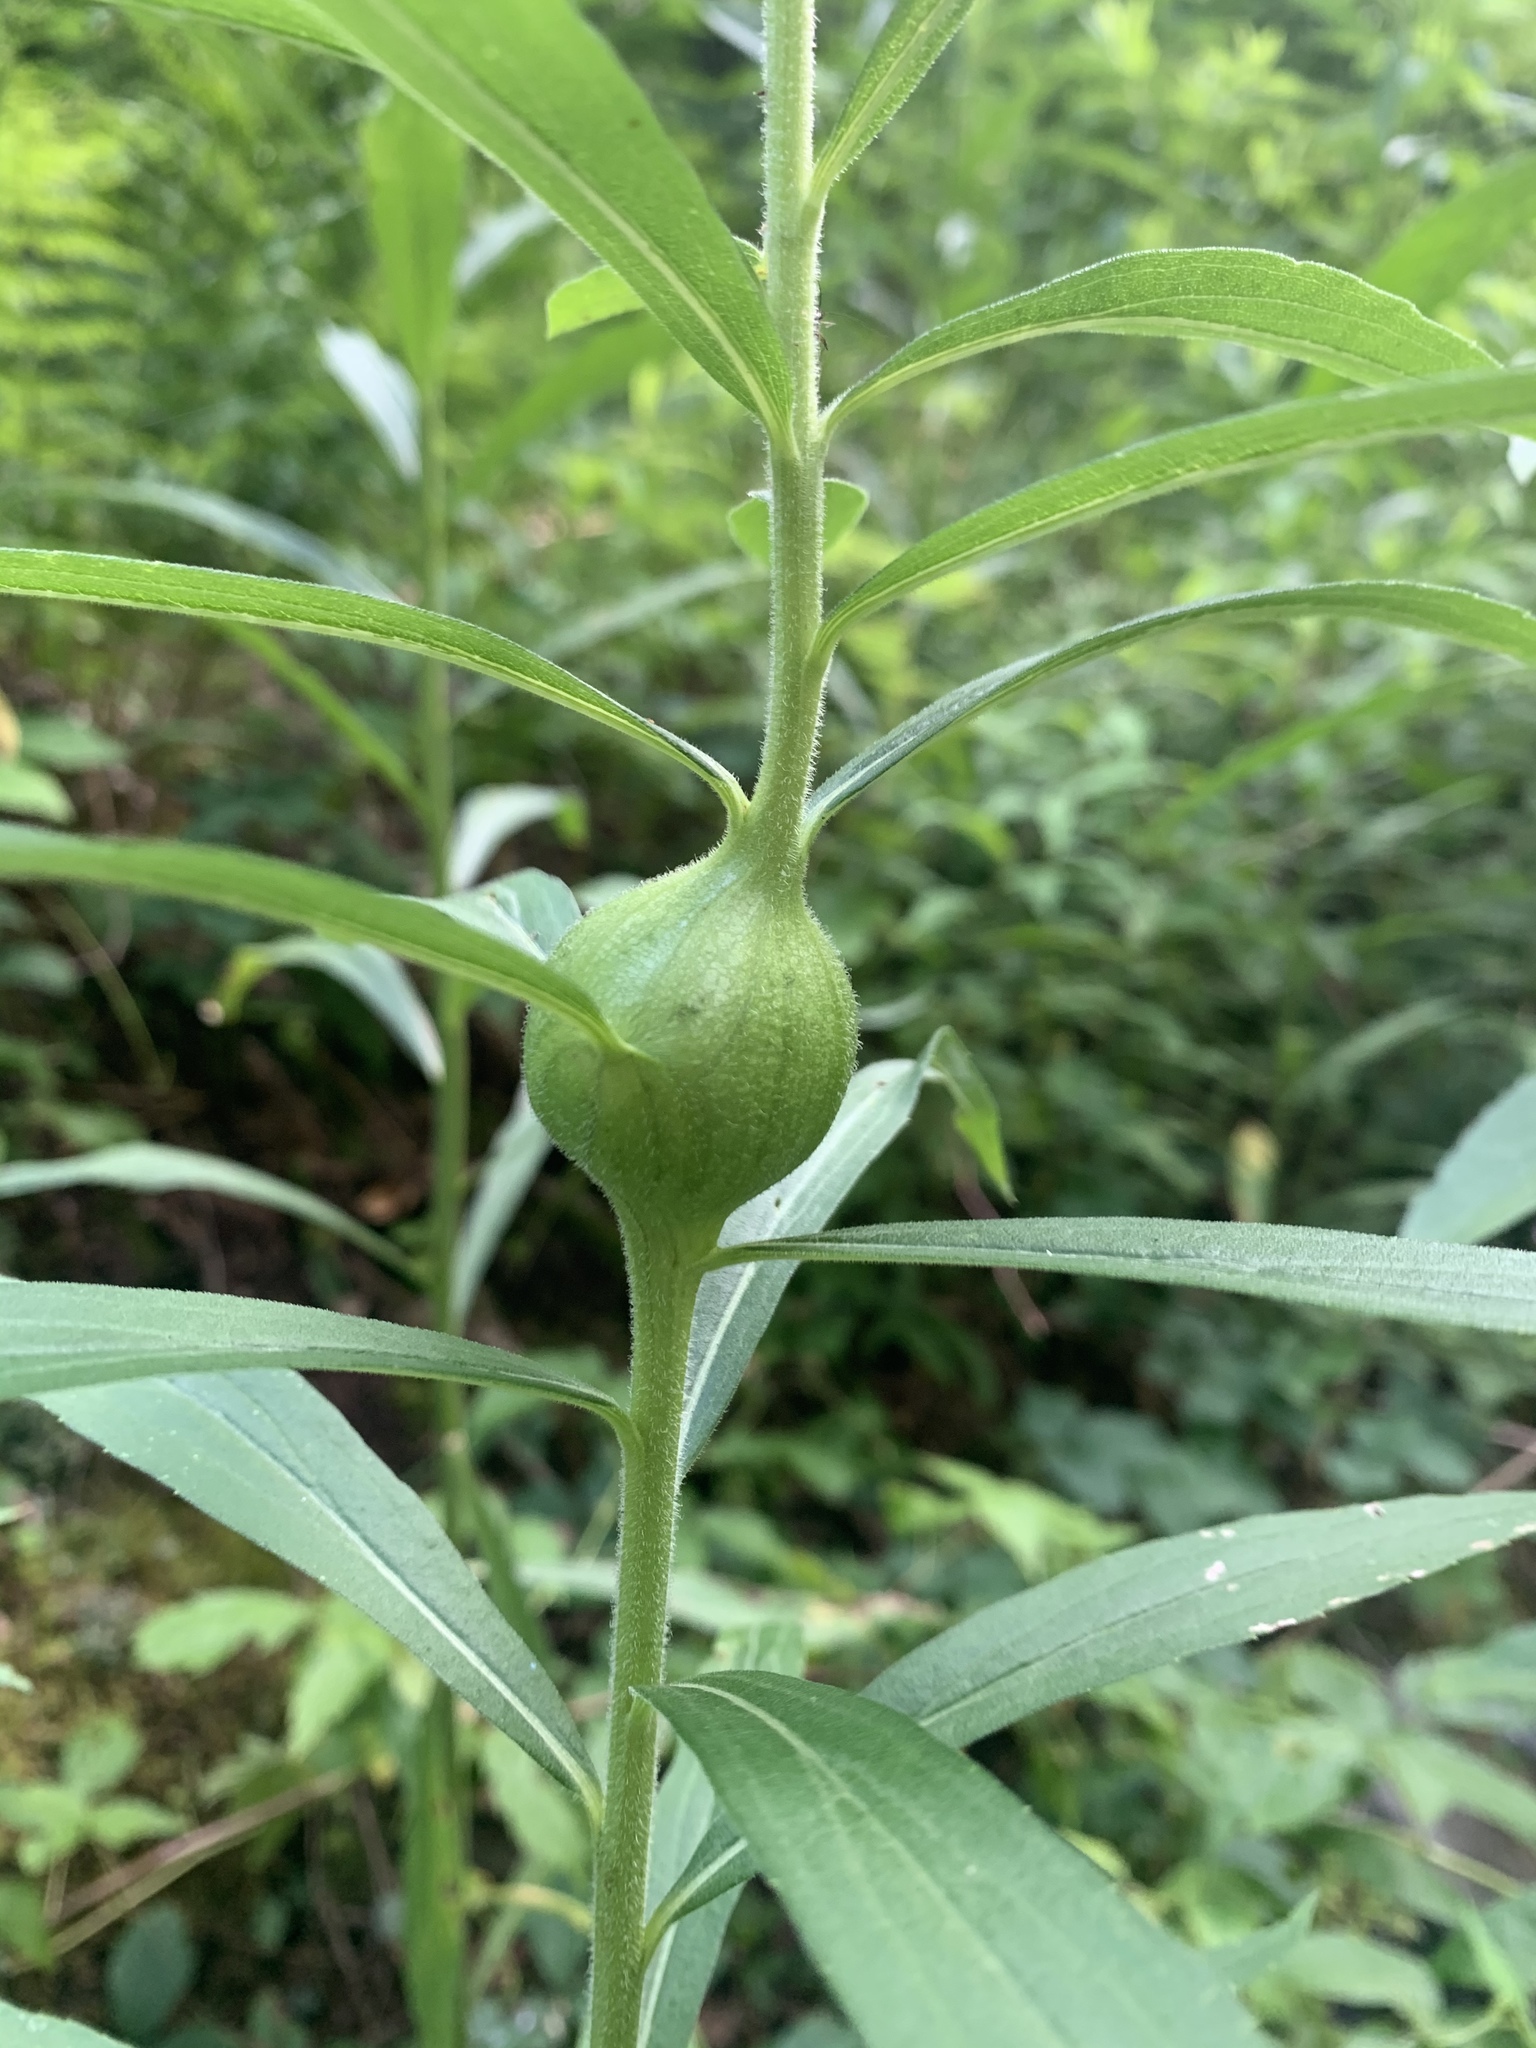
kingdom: Animalia
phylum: Arthropoda
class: Insecta
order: Diptera
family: Tephritidae
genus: Eurosta
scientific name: Eurosta solidaginis
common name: Goldenrod gall fly
